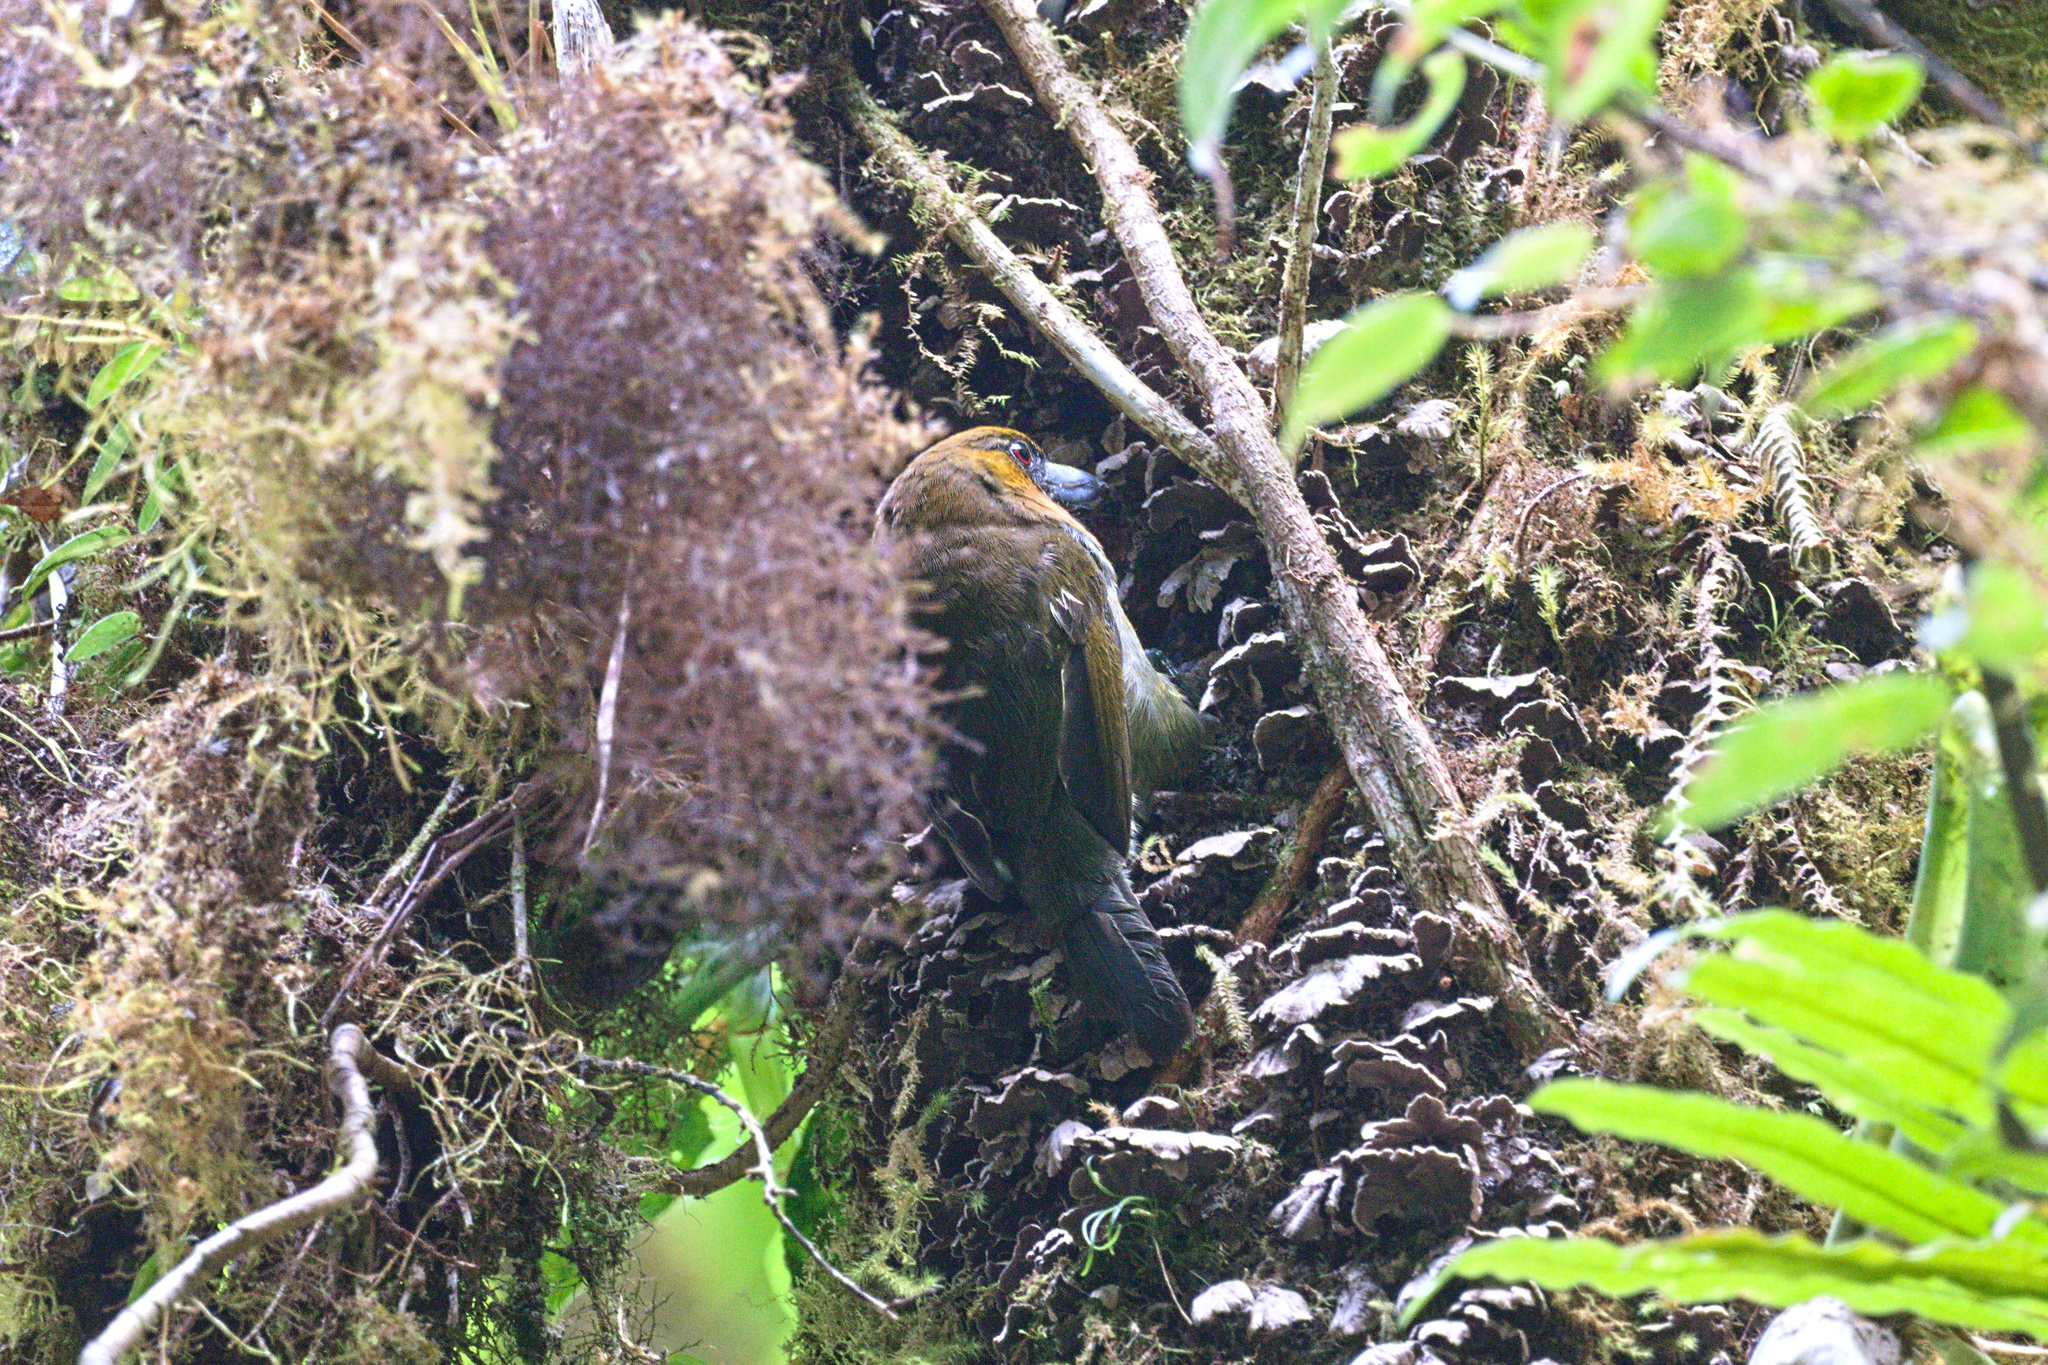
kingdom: Animalia
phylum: Chordata
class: Aves
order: Piciformes
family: Semnornithidae
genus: Semnornis
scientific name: Semnornis frantzii
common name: Prong-billed barbet
